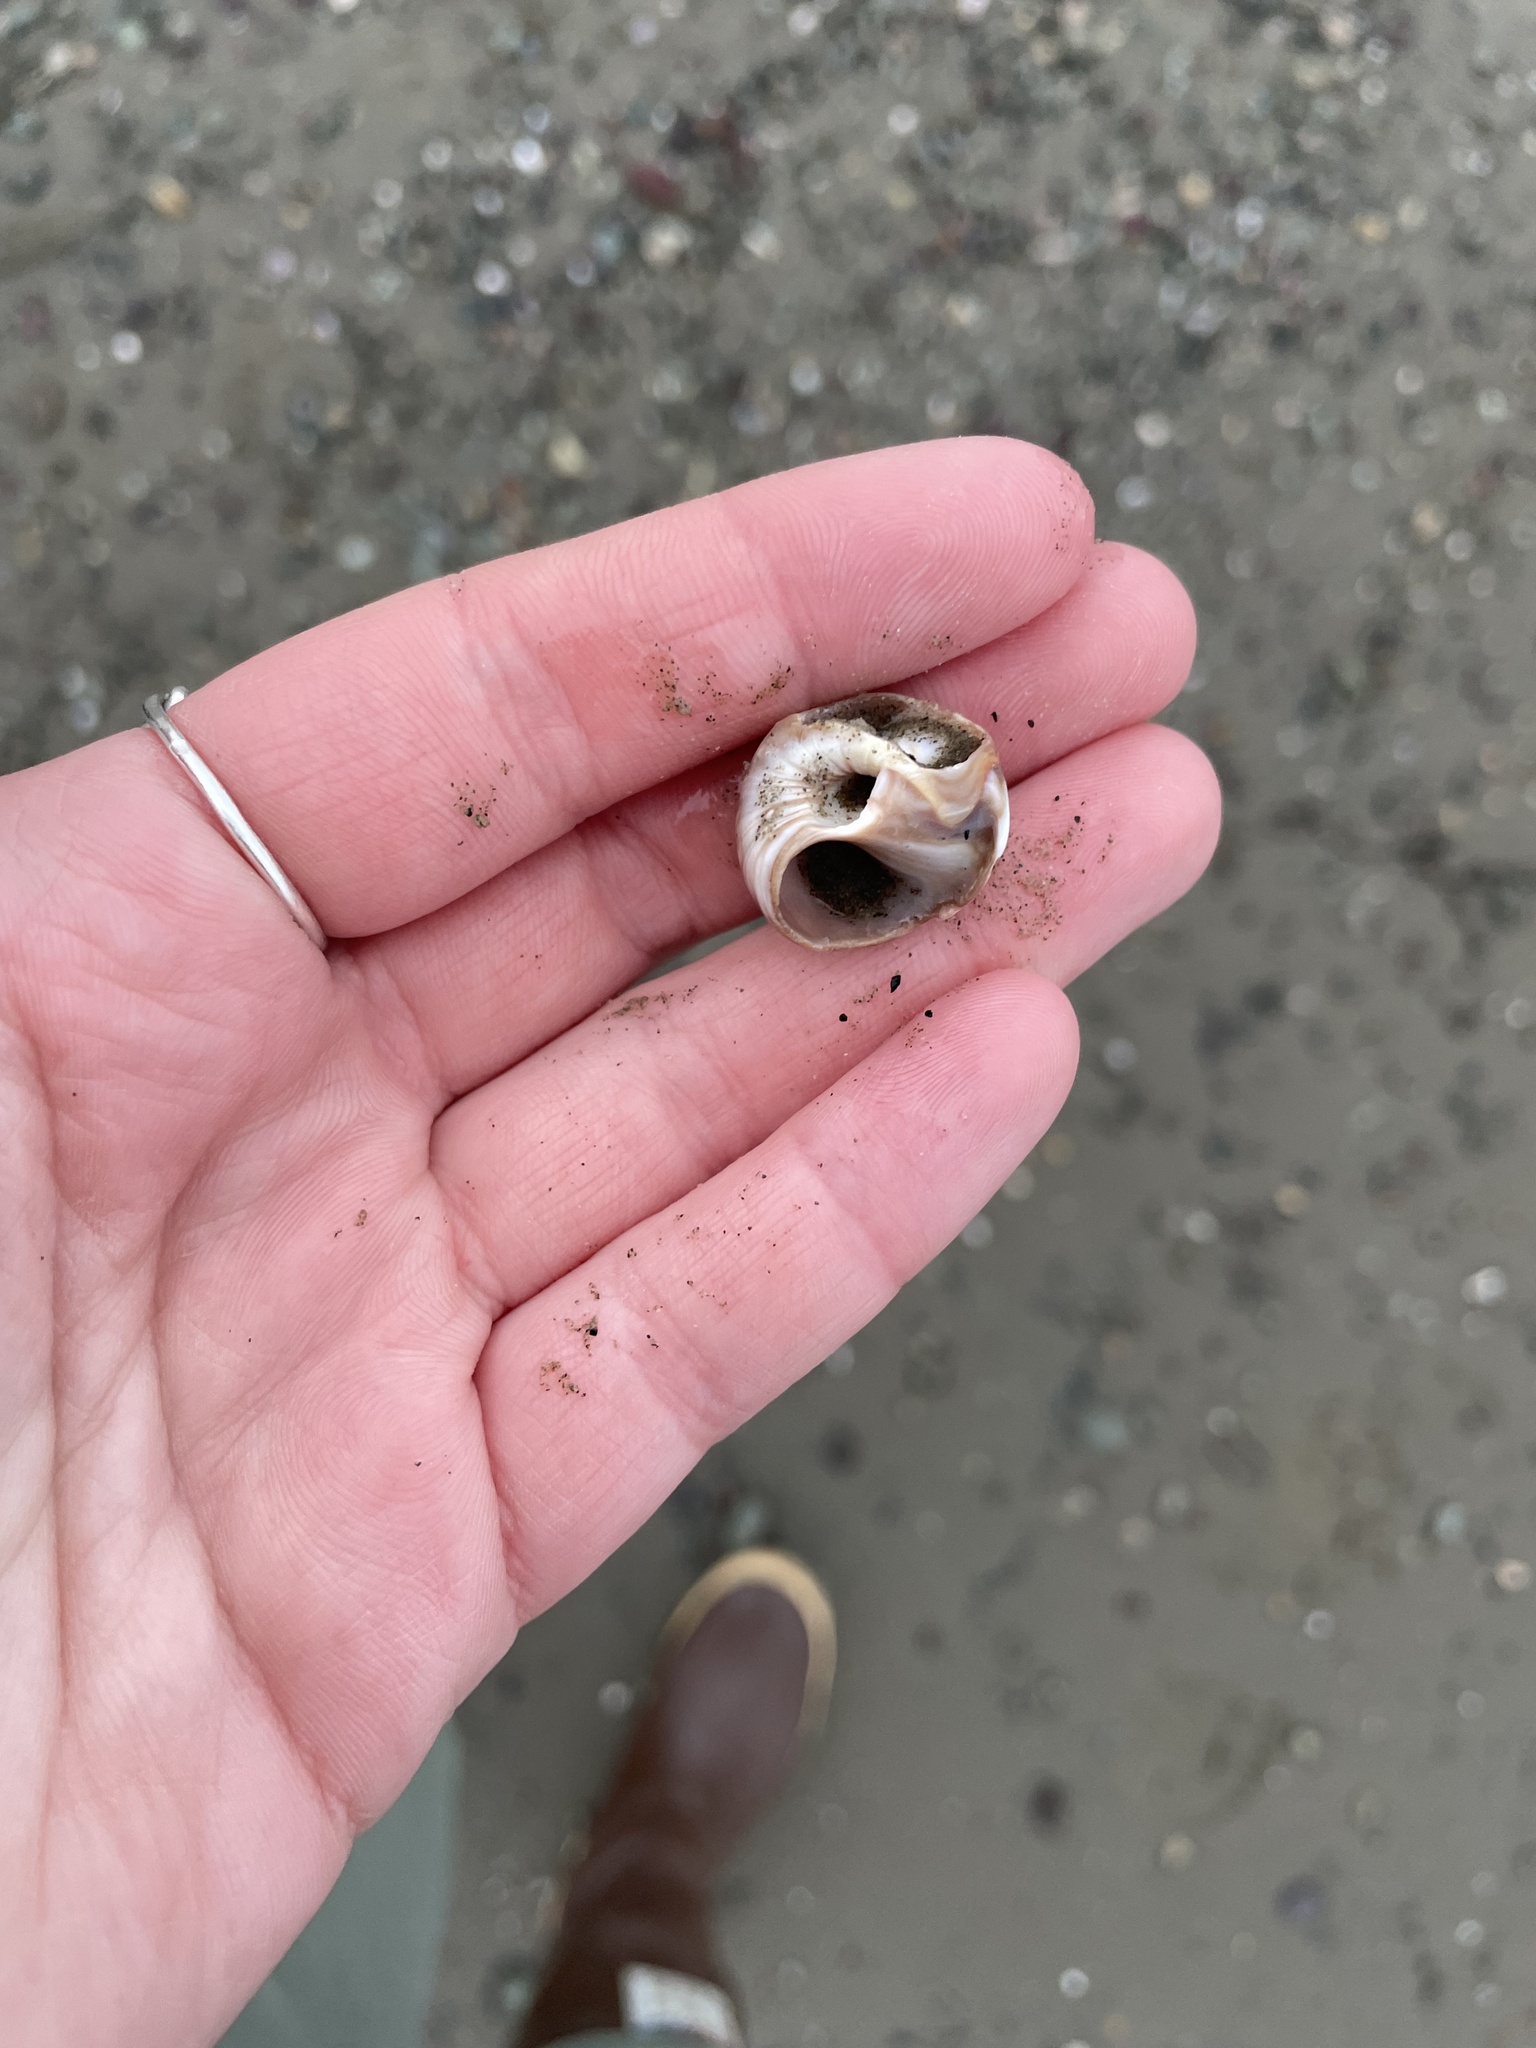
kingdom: Animalia
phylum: Mollusca
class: Gastropoda
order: Littorinimorpha
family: Naticidae
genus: Euspira
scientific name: Euspira heros
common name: Common northern moonsnail
